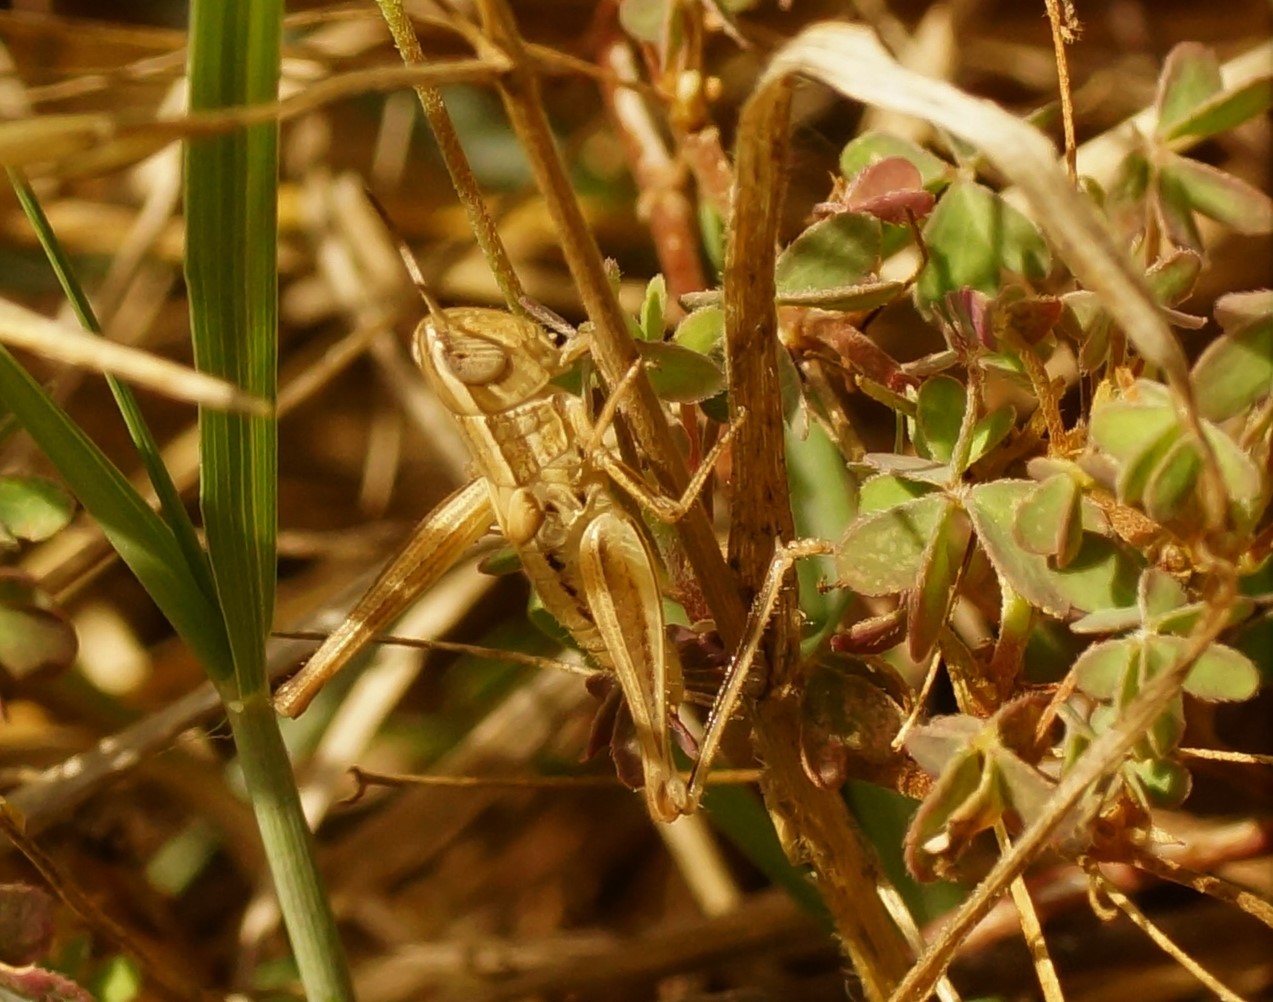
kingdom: Animalia
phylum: Arthropoda
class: Insecta
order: Orthoptera
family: Acrididae
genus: Macrotona
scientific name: Macrotona australis
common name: Common macrotona
